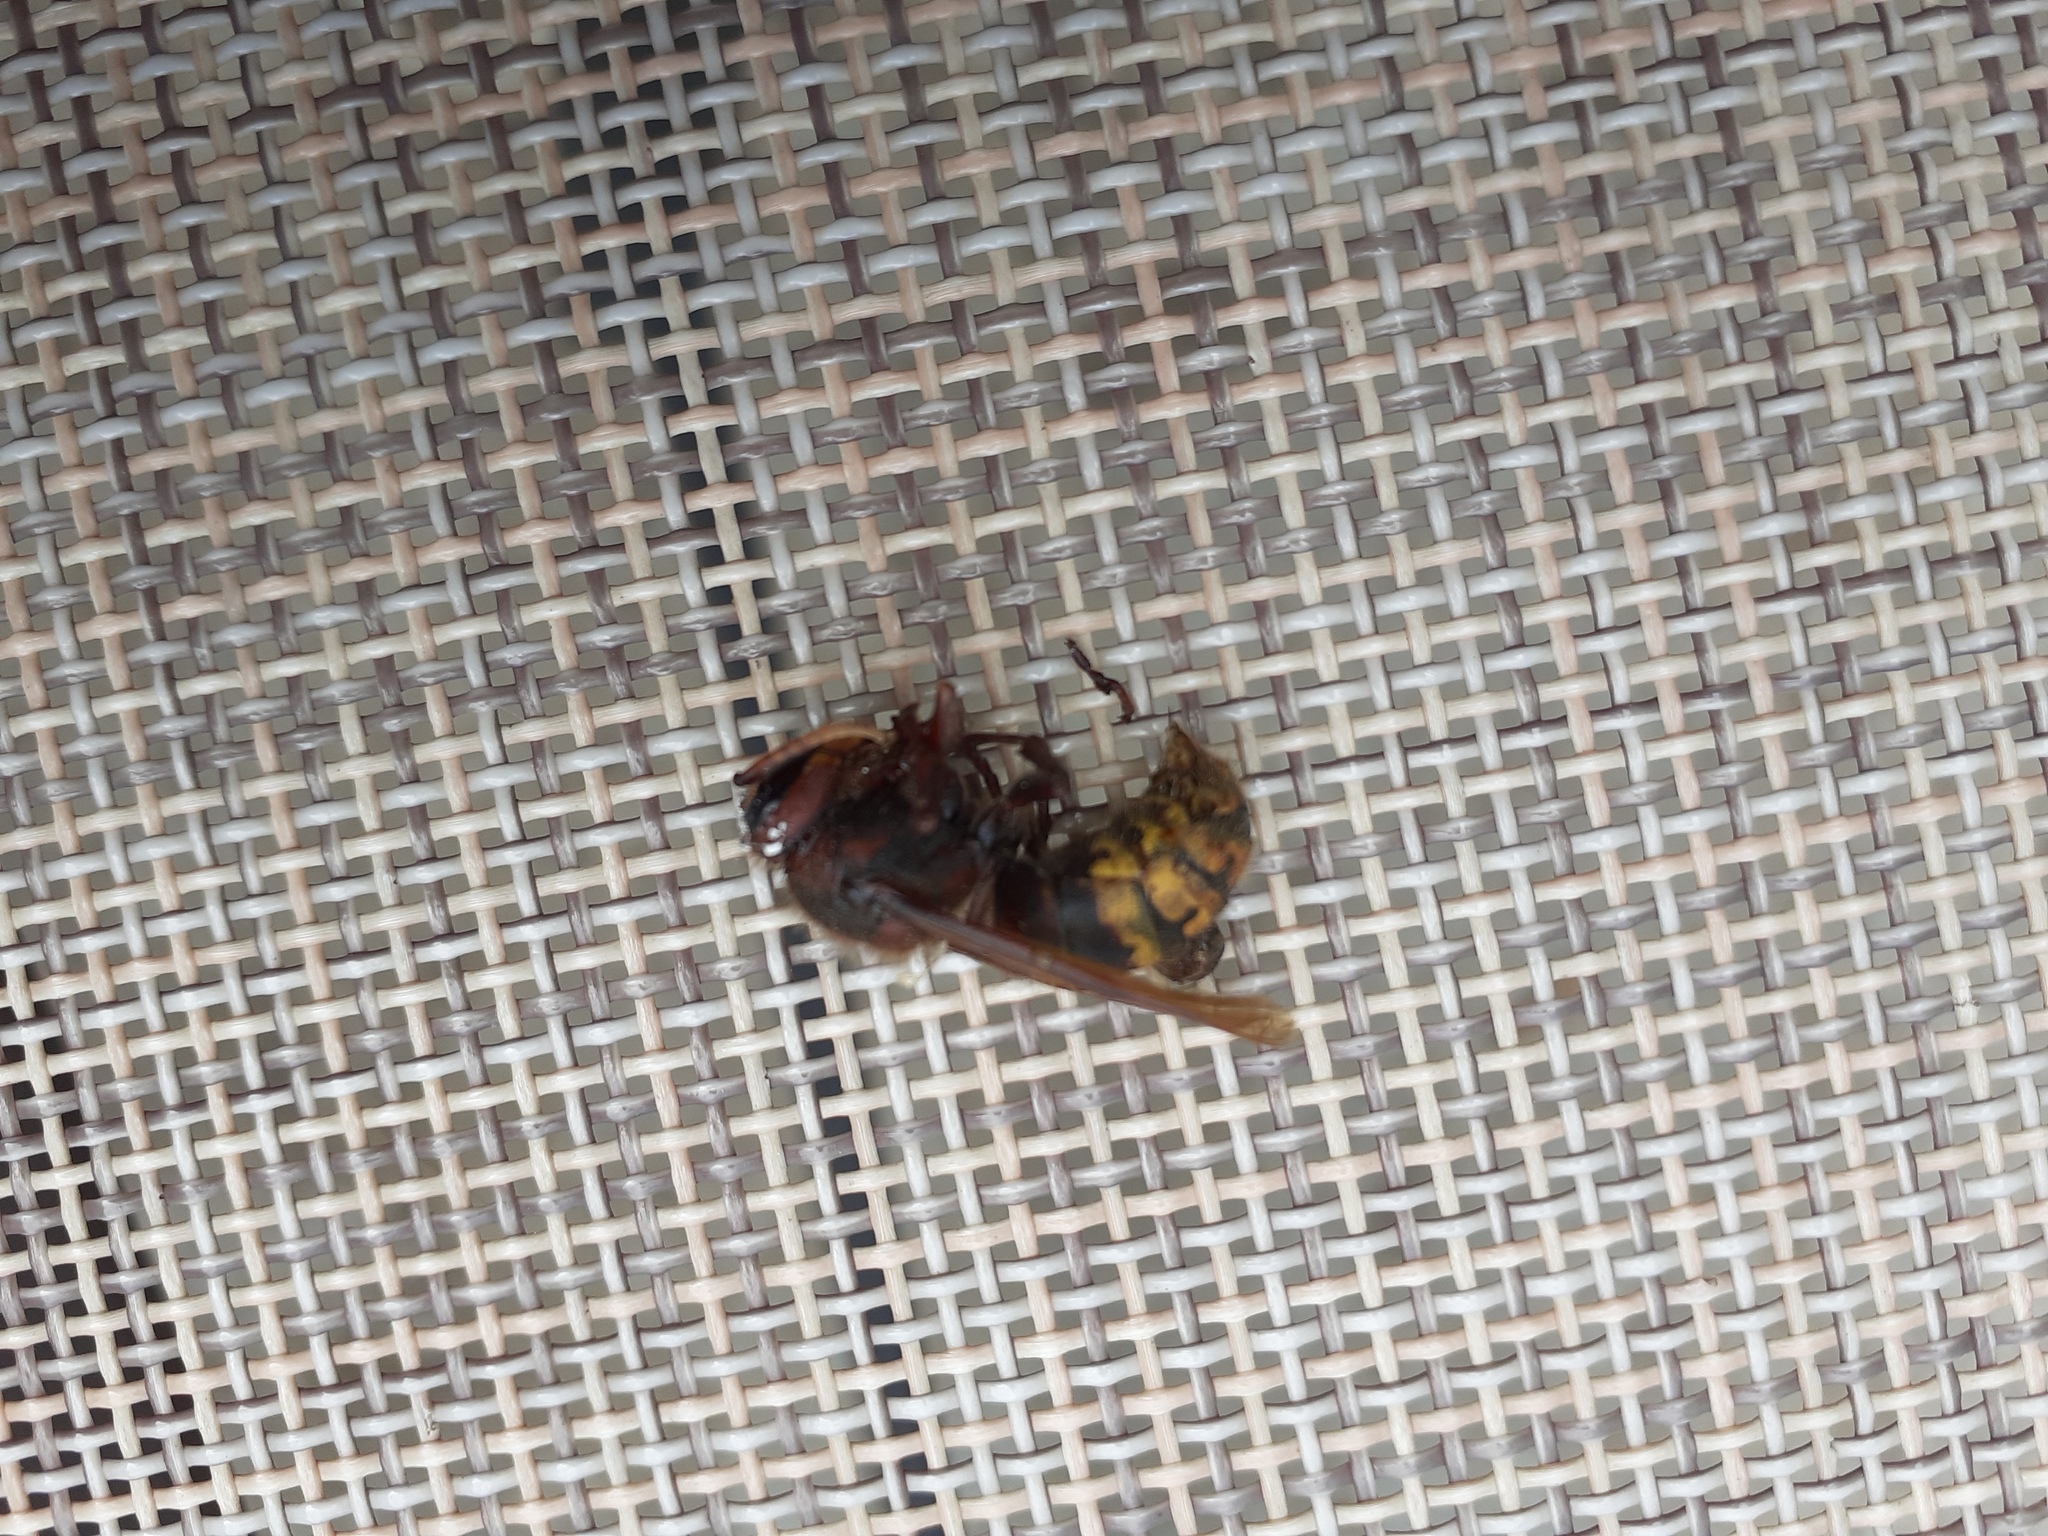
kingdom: Animalia
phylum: Arthropoda
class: Insecta
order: Hymenoptera
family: Vespidae
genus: Vespa
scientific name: Vespa crabro
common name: Hornet
